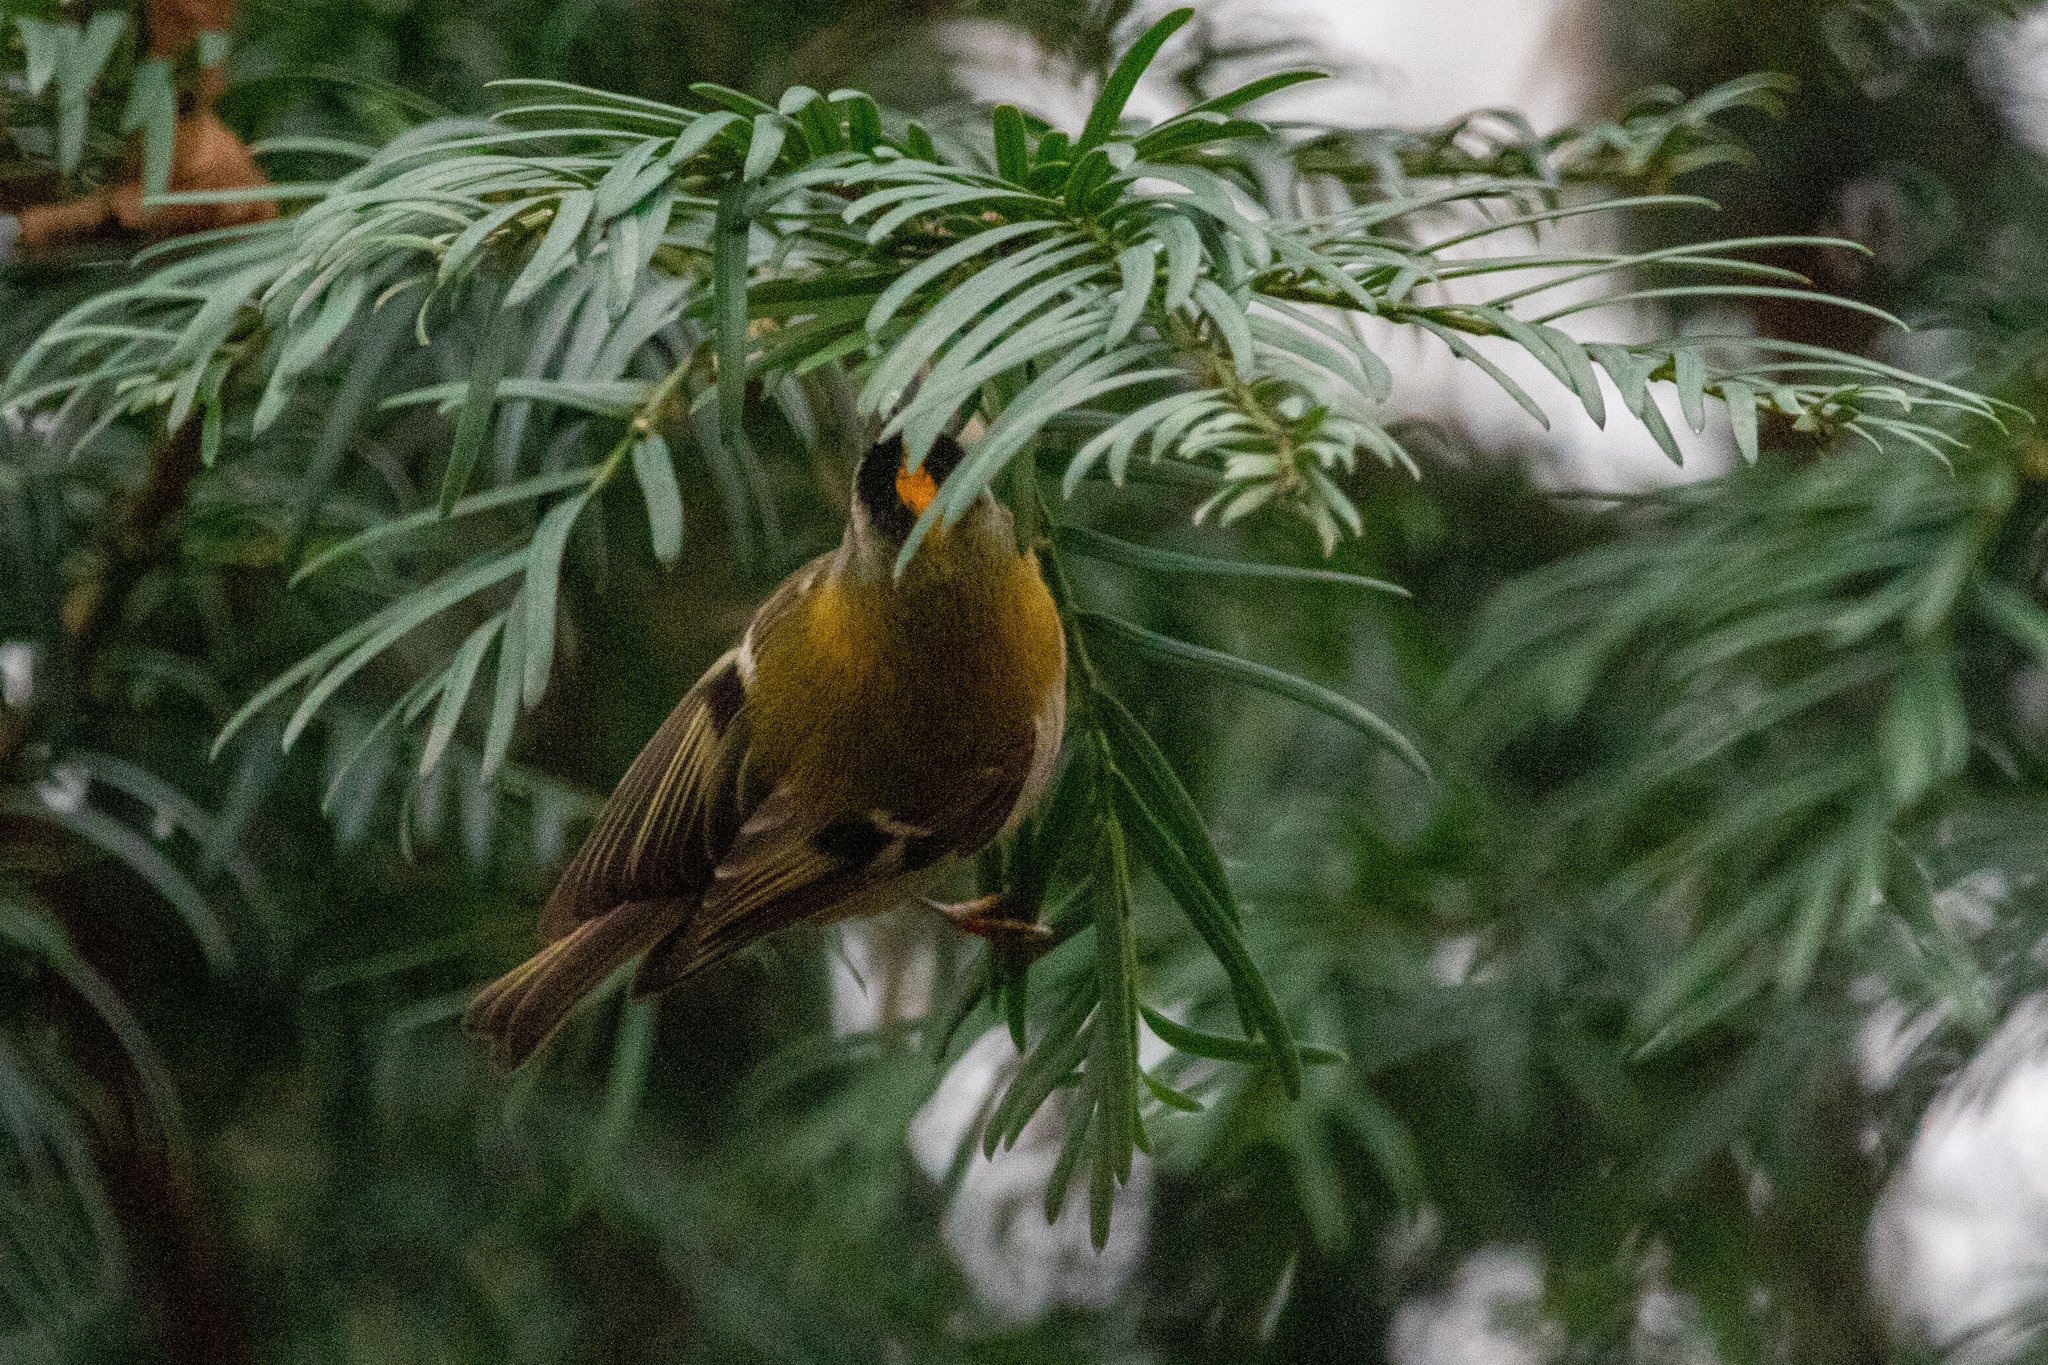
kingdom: Animalia
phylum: Chordata
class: Aves
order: Passeriformes
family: Regulidae
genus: Regulus
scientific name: Regulus ignicapilla
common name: Firecrest
